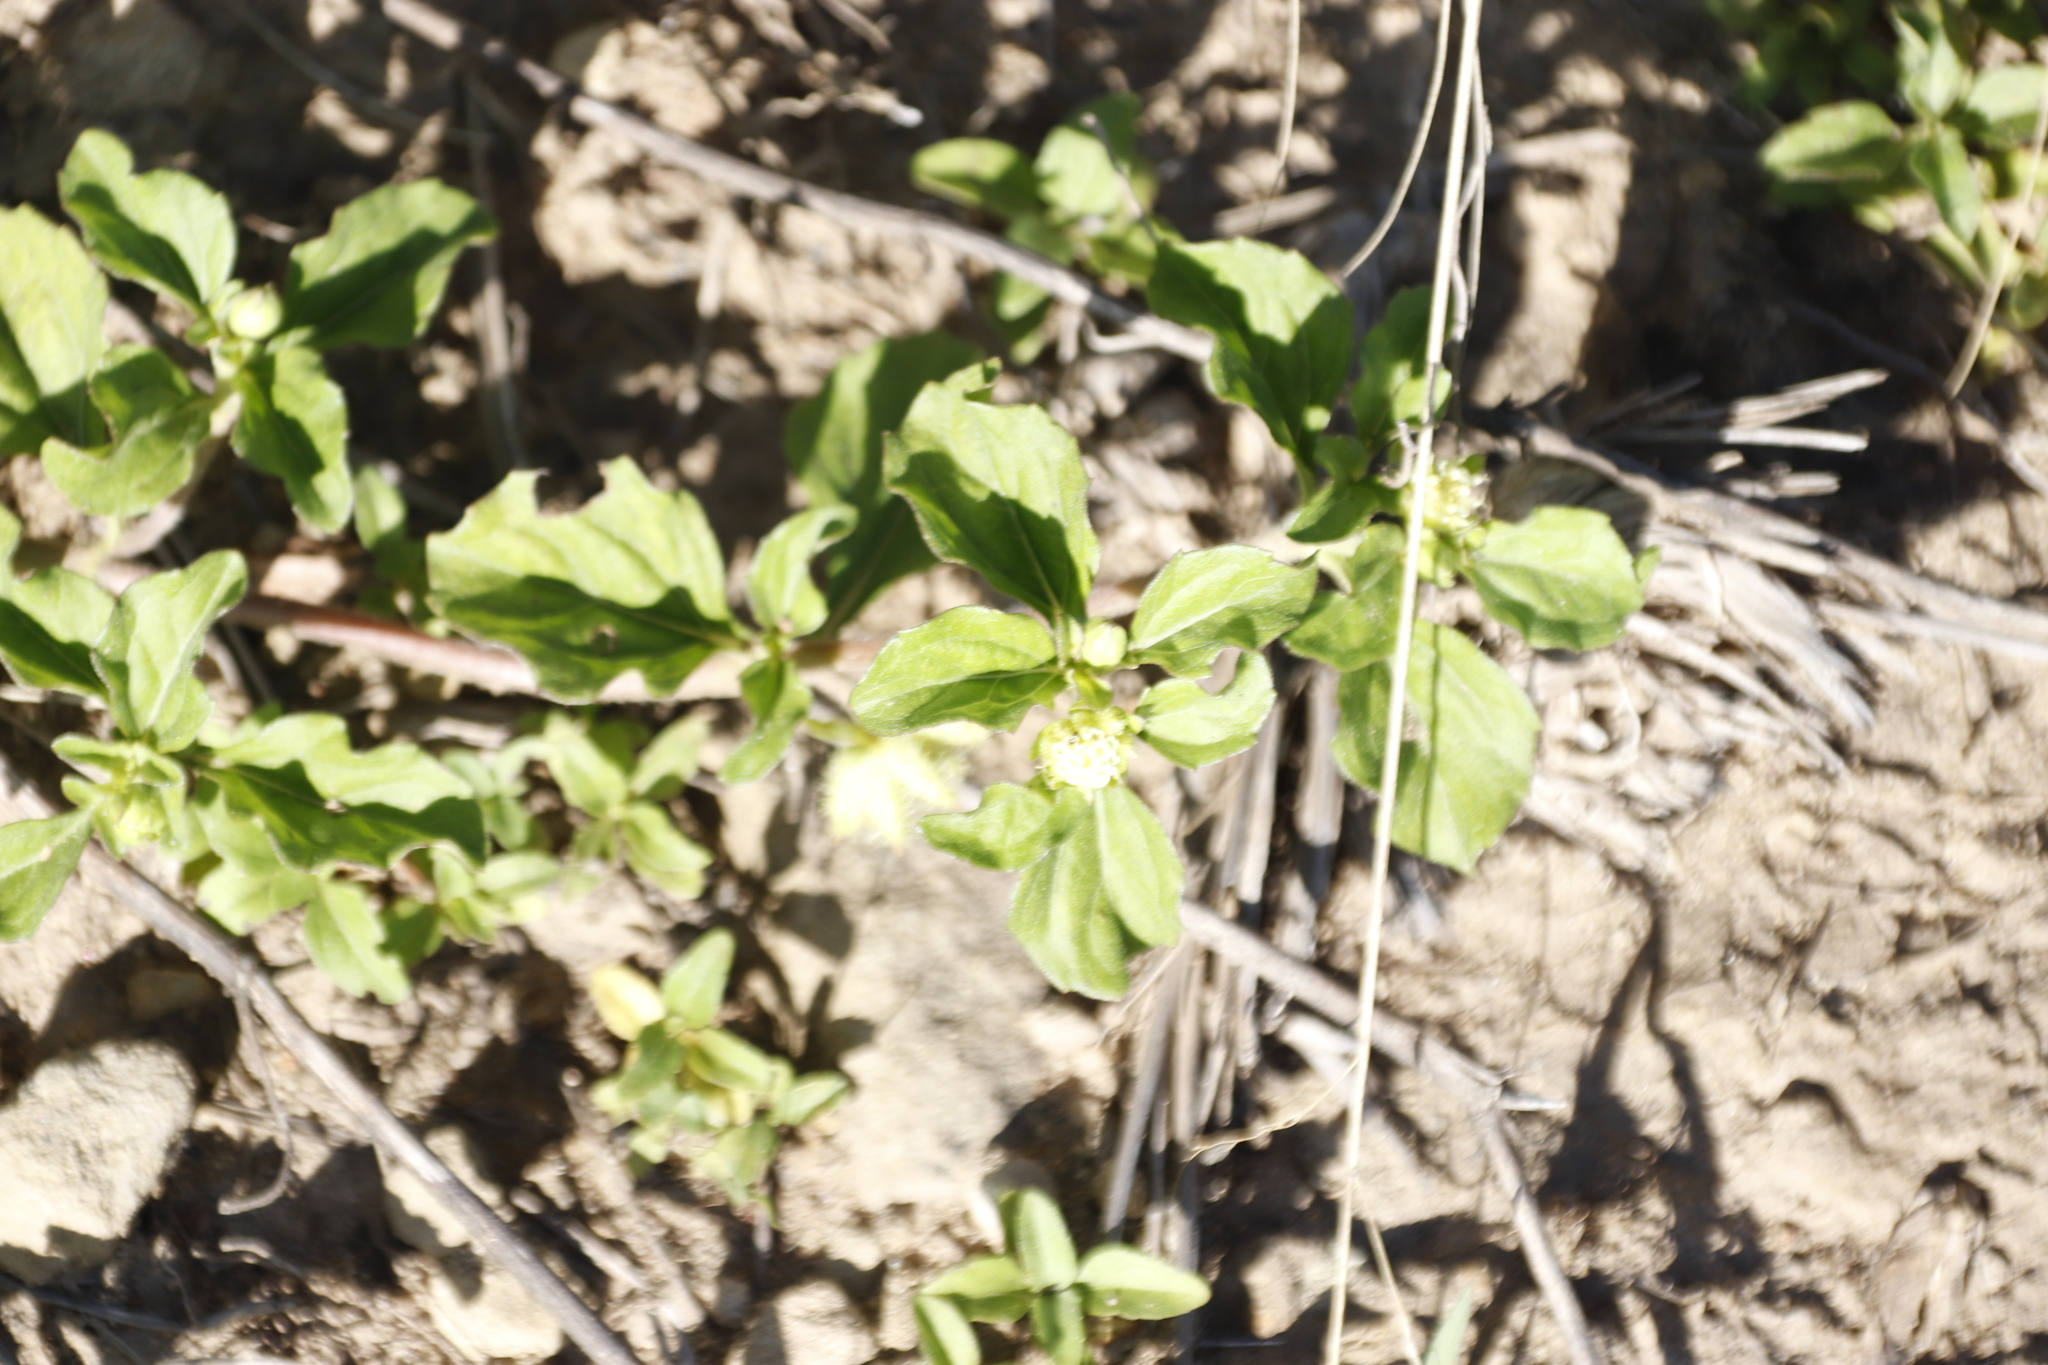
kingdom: Plantae
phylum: Tracheophyta
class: Magnoliopsida
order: Asterales
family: Asteraceae
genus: Acanthospermum
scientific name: Acanthospermum australe
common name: Paraguayan starbur
